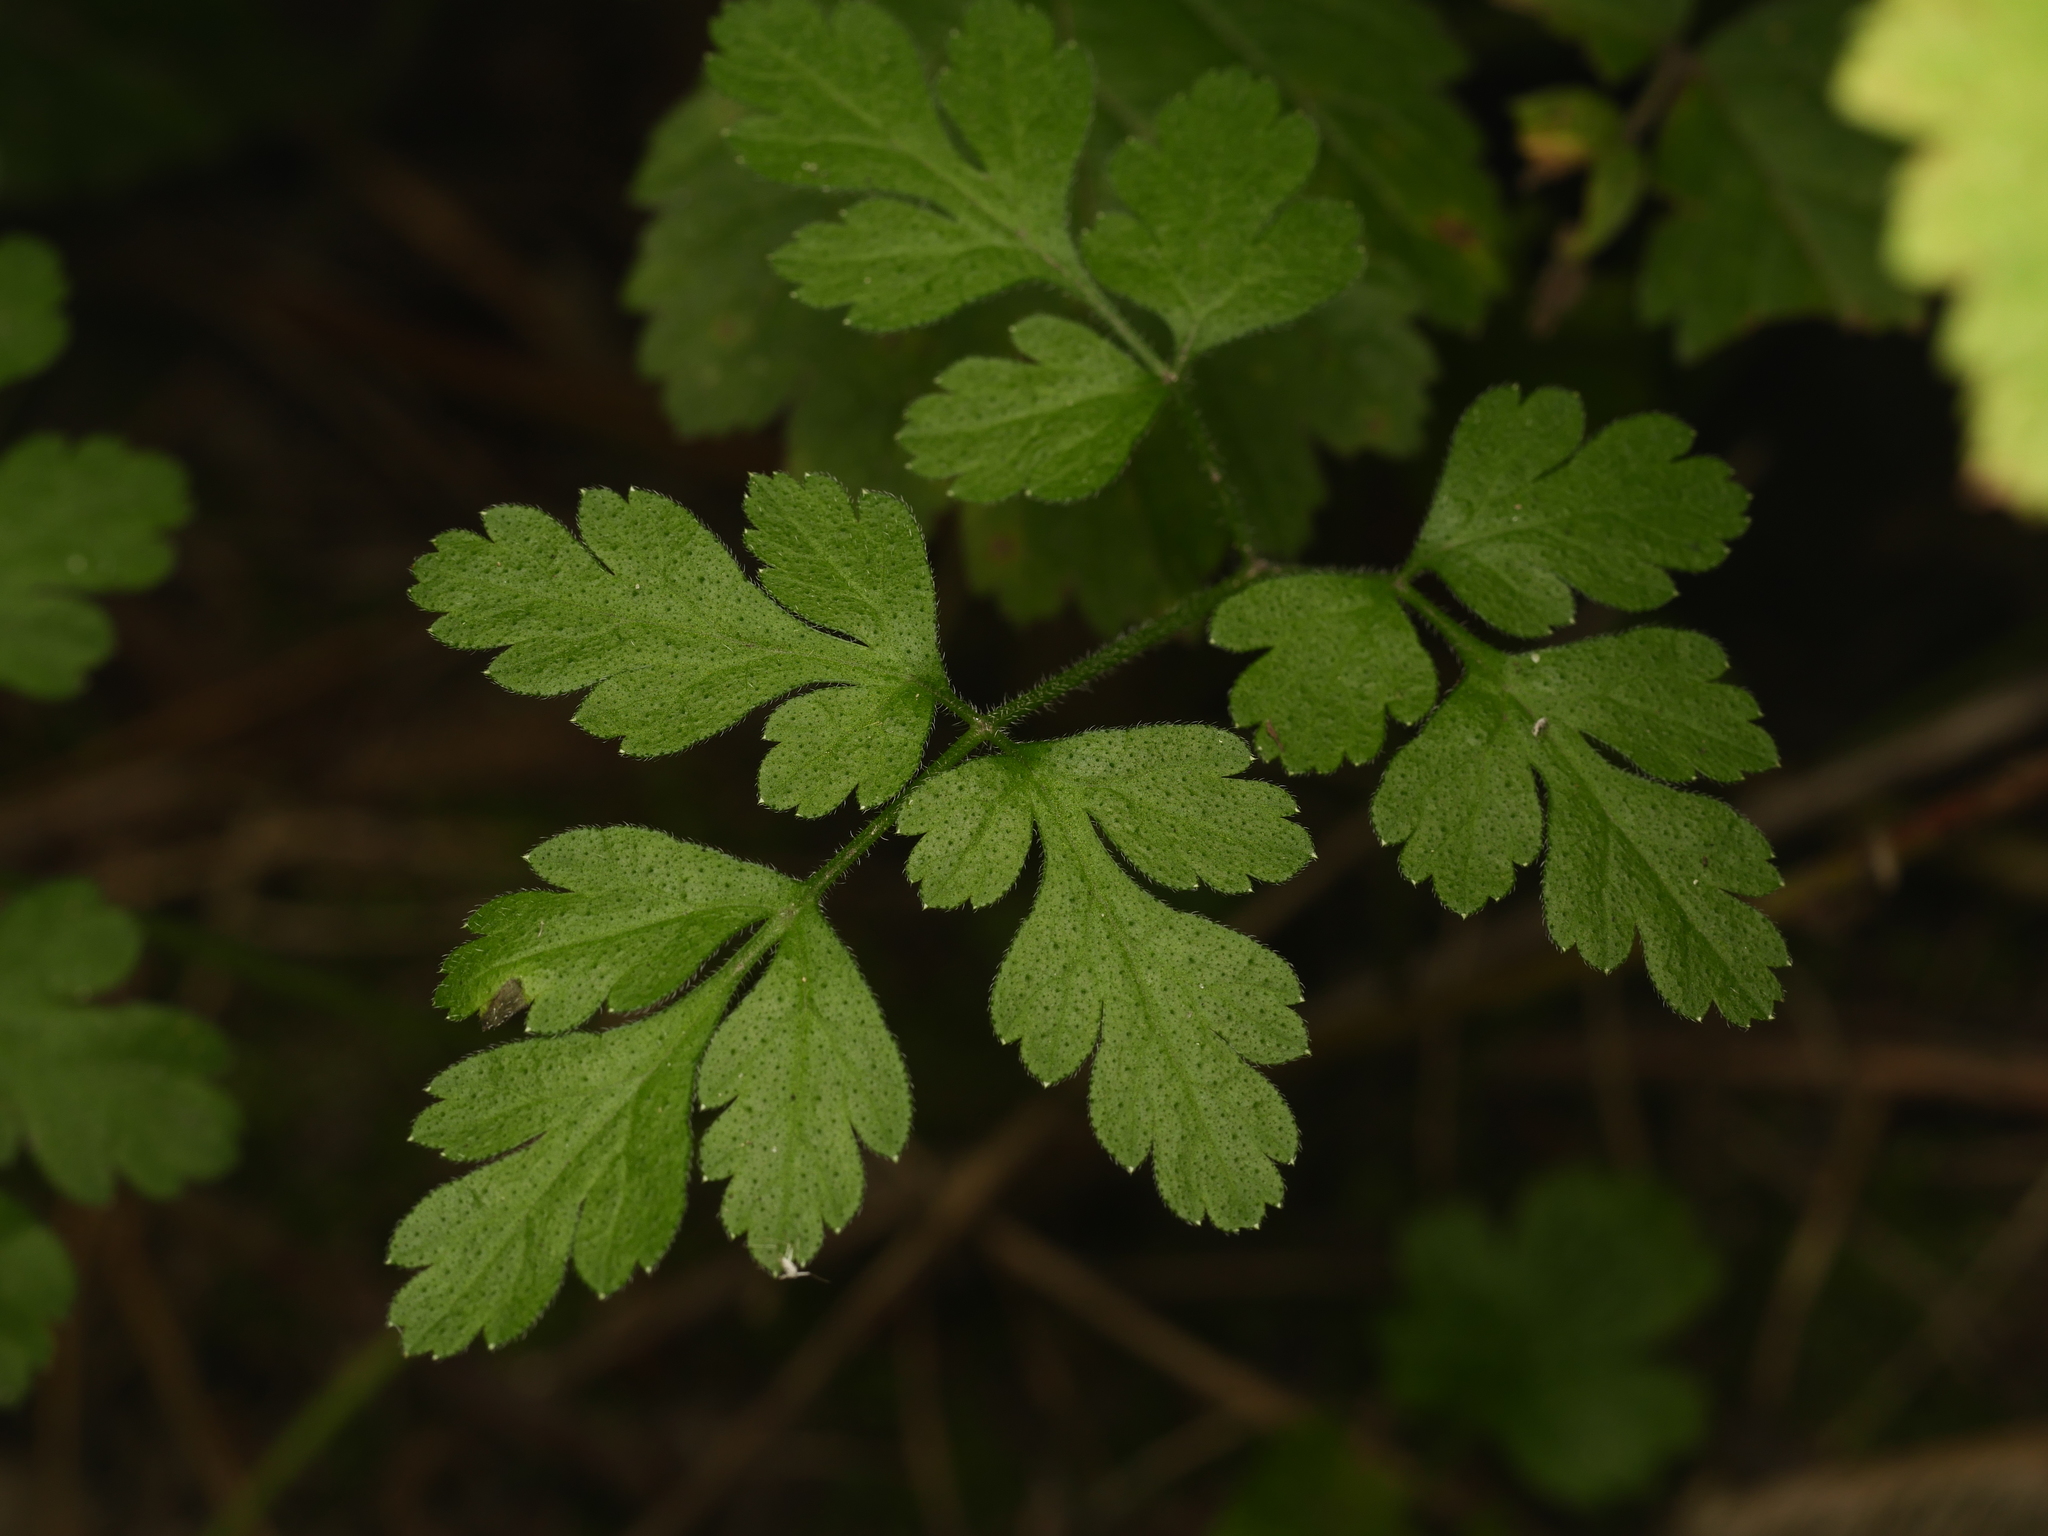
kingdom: Plantae
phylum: Tracheophyta
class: Magnoliopsida
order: Apiales
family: Apiaceae
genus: Chaerophyllum
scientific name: Chaerophyllum temulum
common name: Rough chervil
